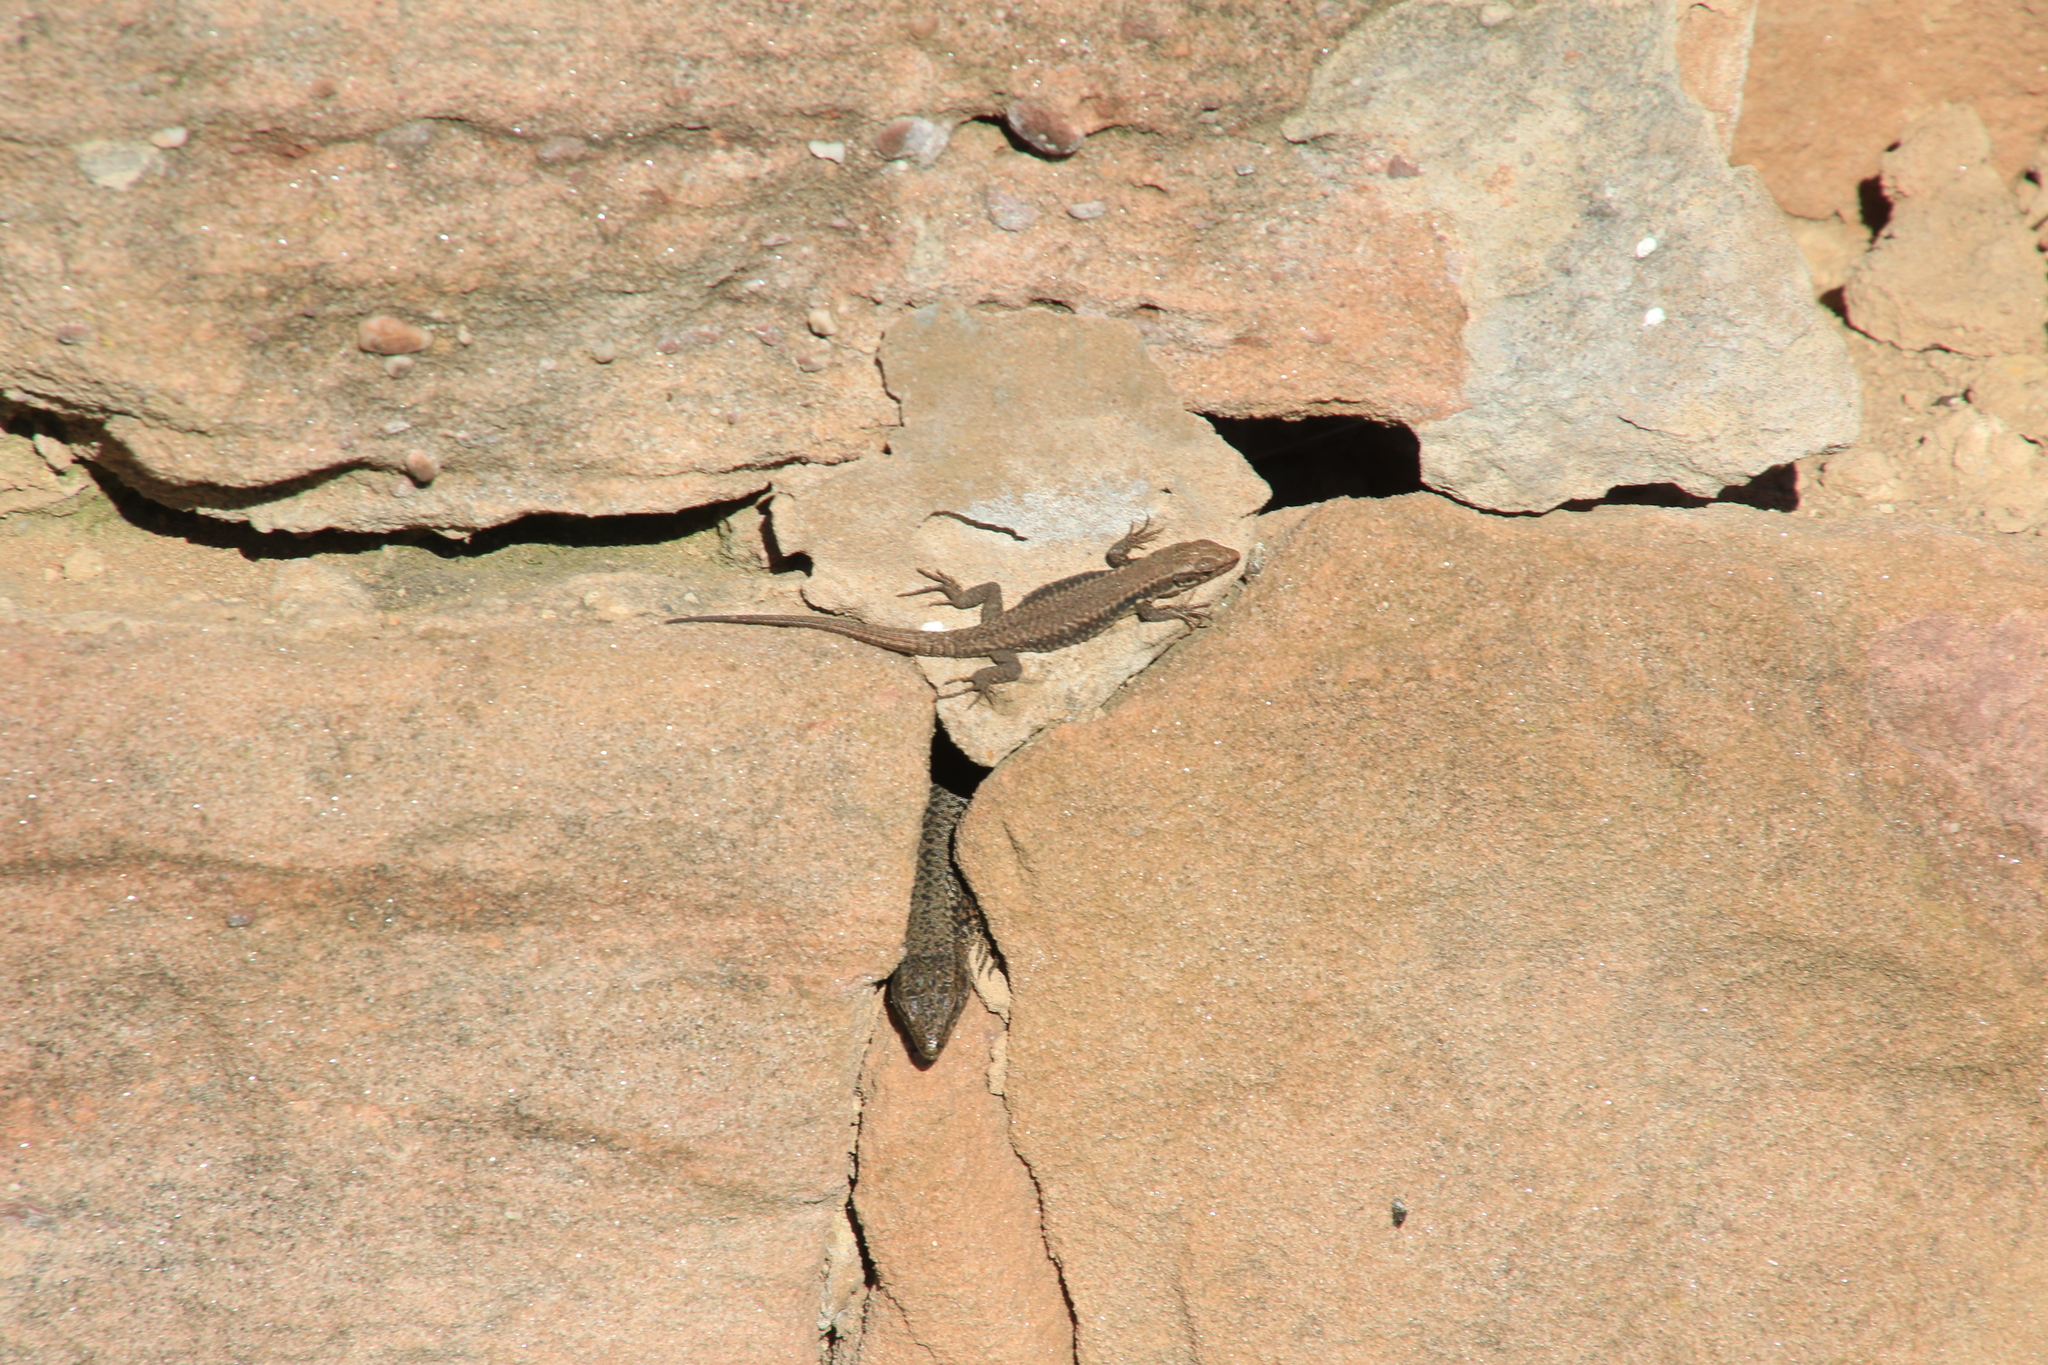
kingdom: Animalia
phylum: Chordata
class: Squamata
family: Lacertidae
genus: Podarcis
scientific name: Podarcis muralis
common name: Common wall lizard
